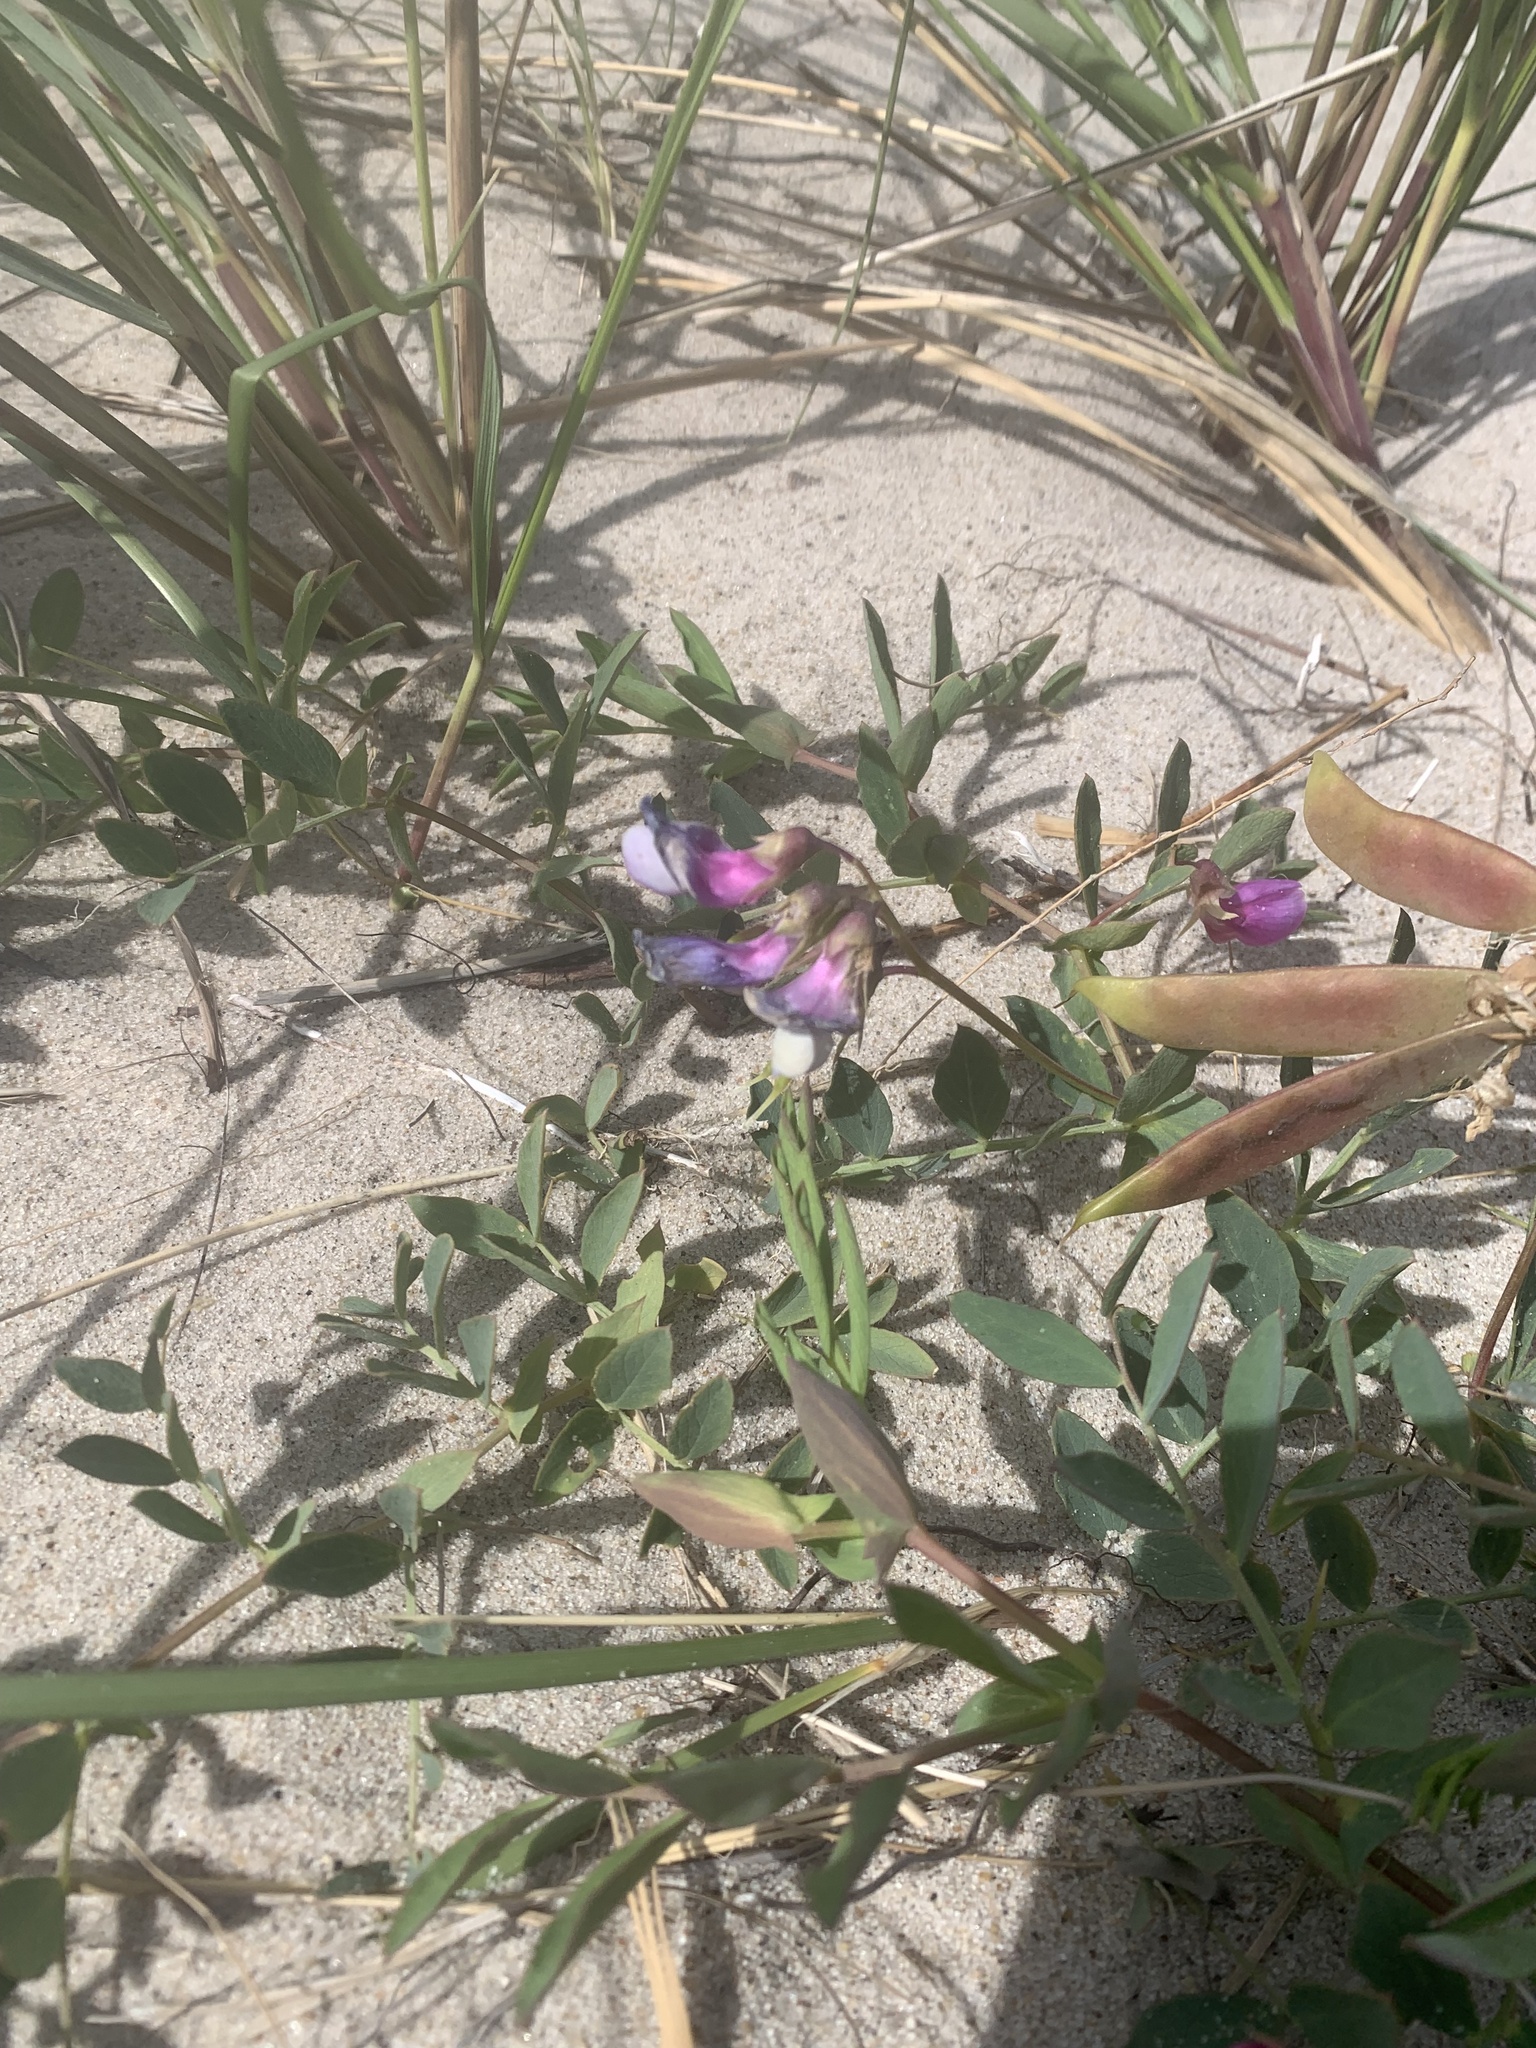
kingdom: Plantae
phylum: Tracheophyta
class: Magnoliopsida
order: Fabales
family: Fabaceae
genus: Lathyrus
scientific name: Lathyrus japonicus
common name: Sea pea
